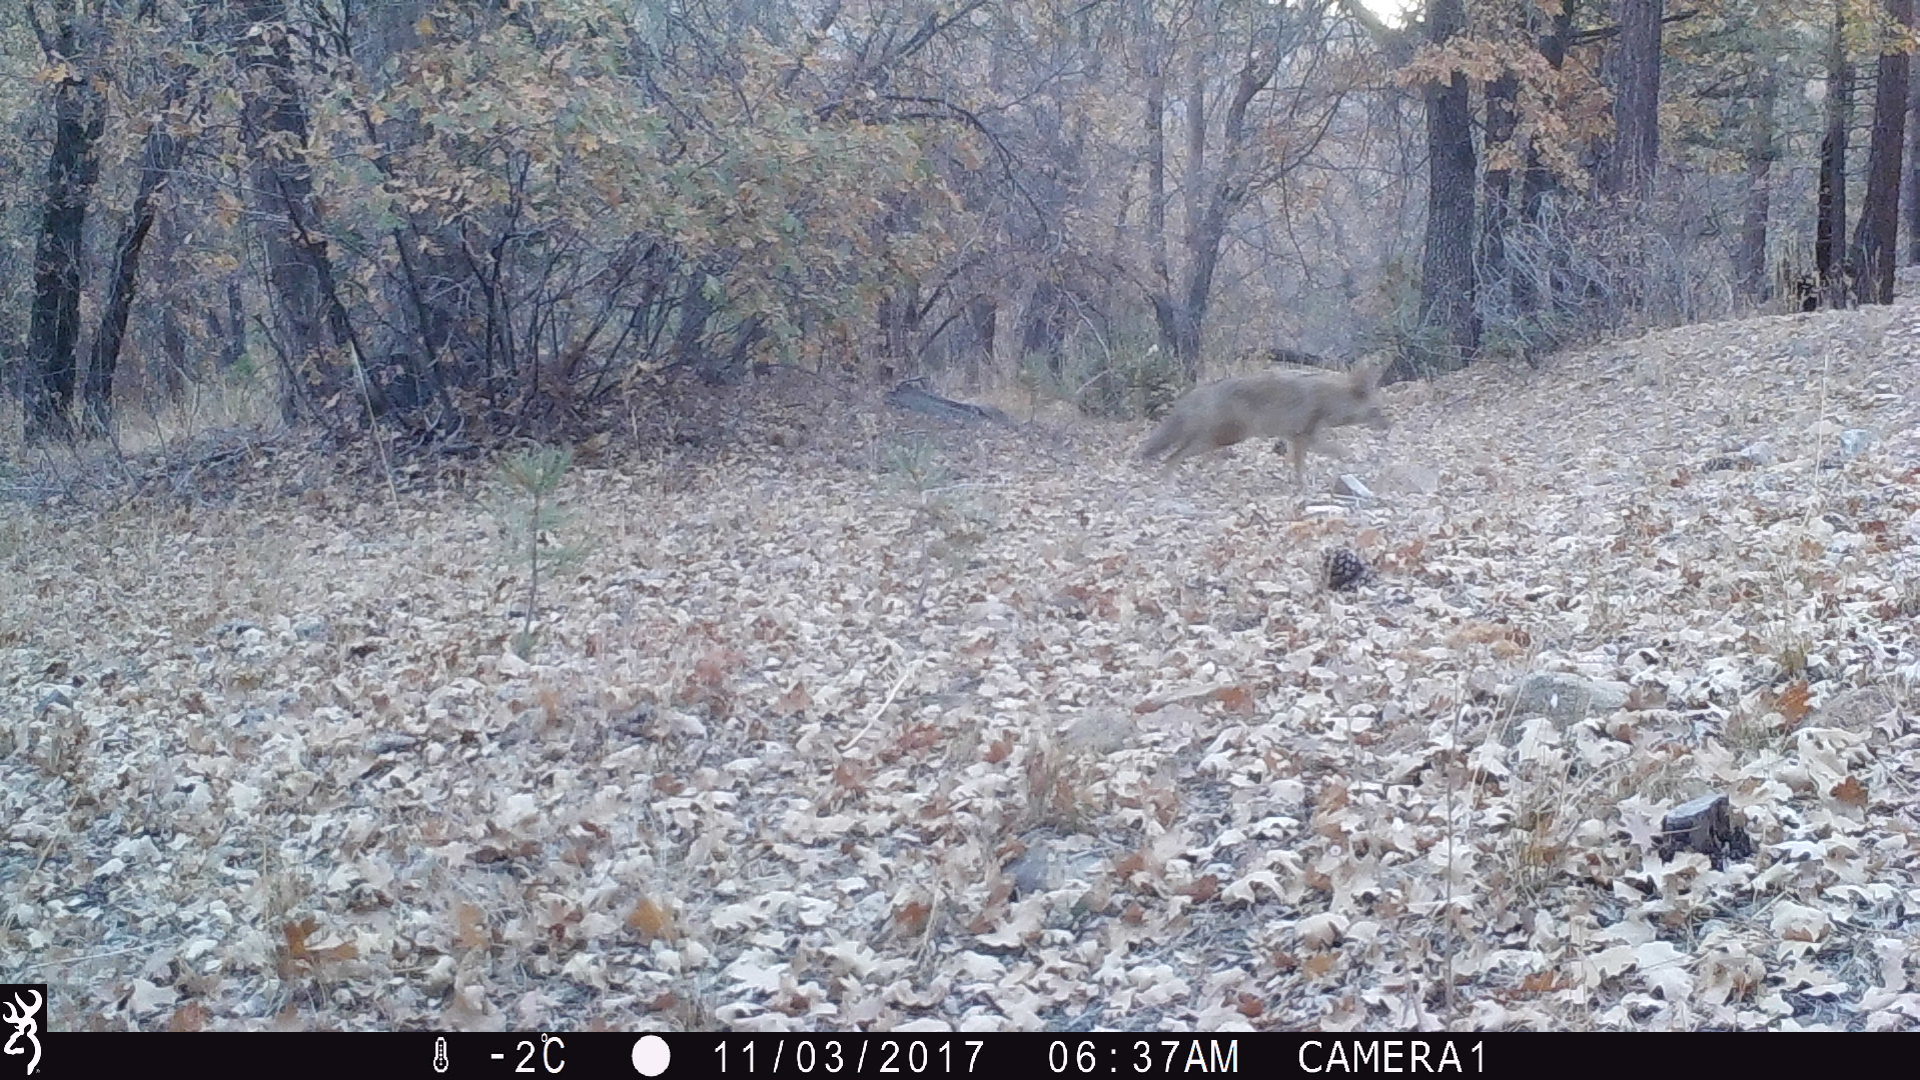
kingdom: Animalia
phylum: Chordata
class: Mammalia
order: Carnivora
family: Canidae
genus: Canis
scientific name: Canis latrans
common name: Coyote
